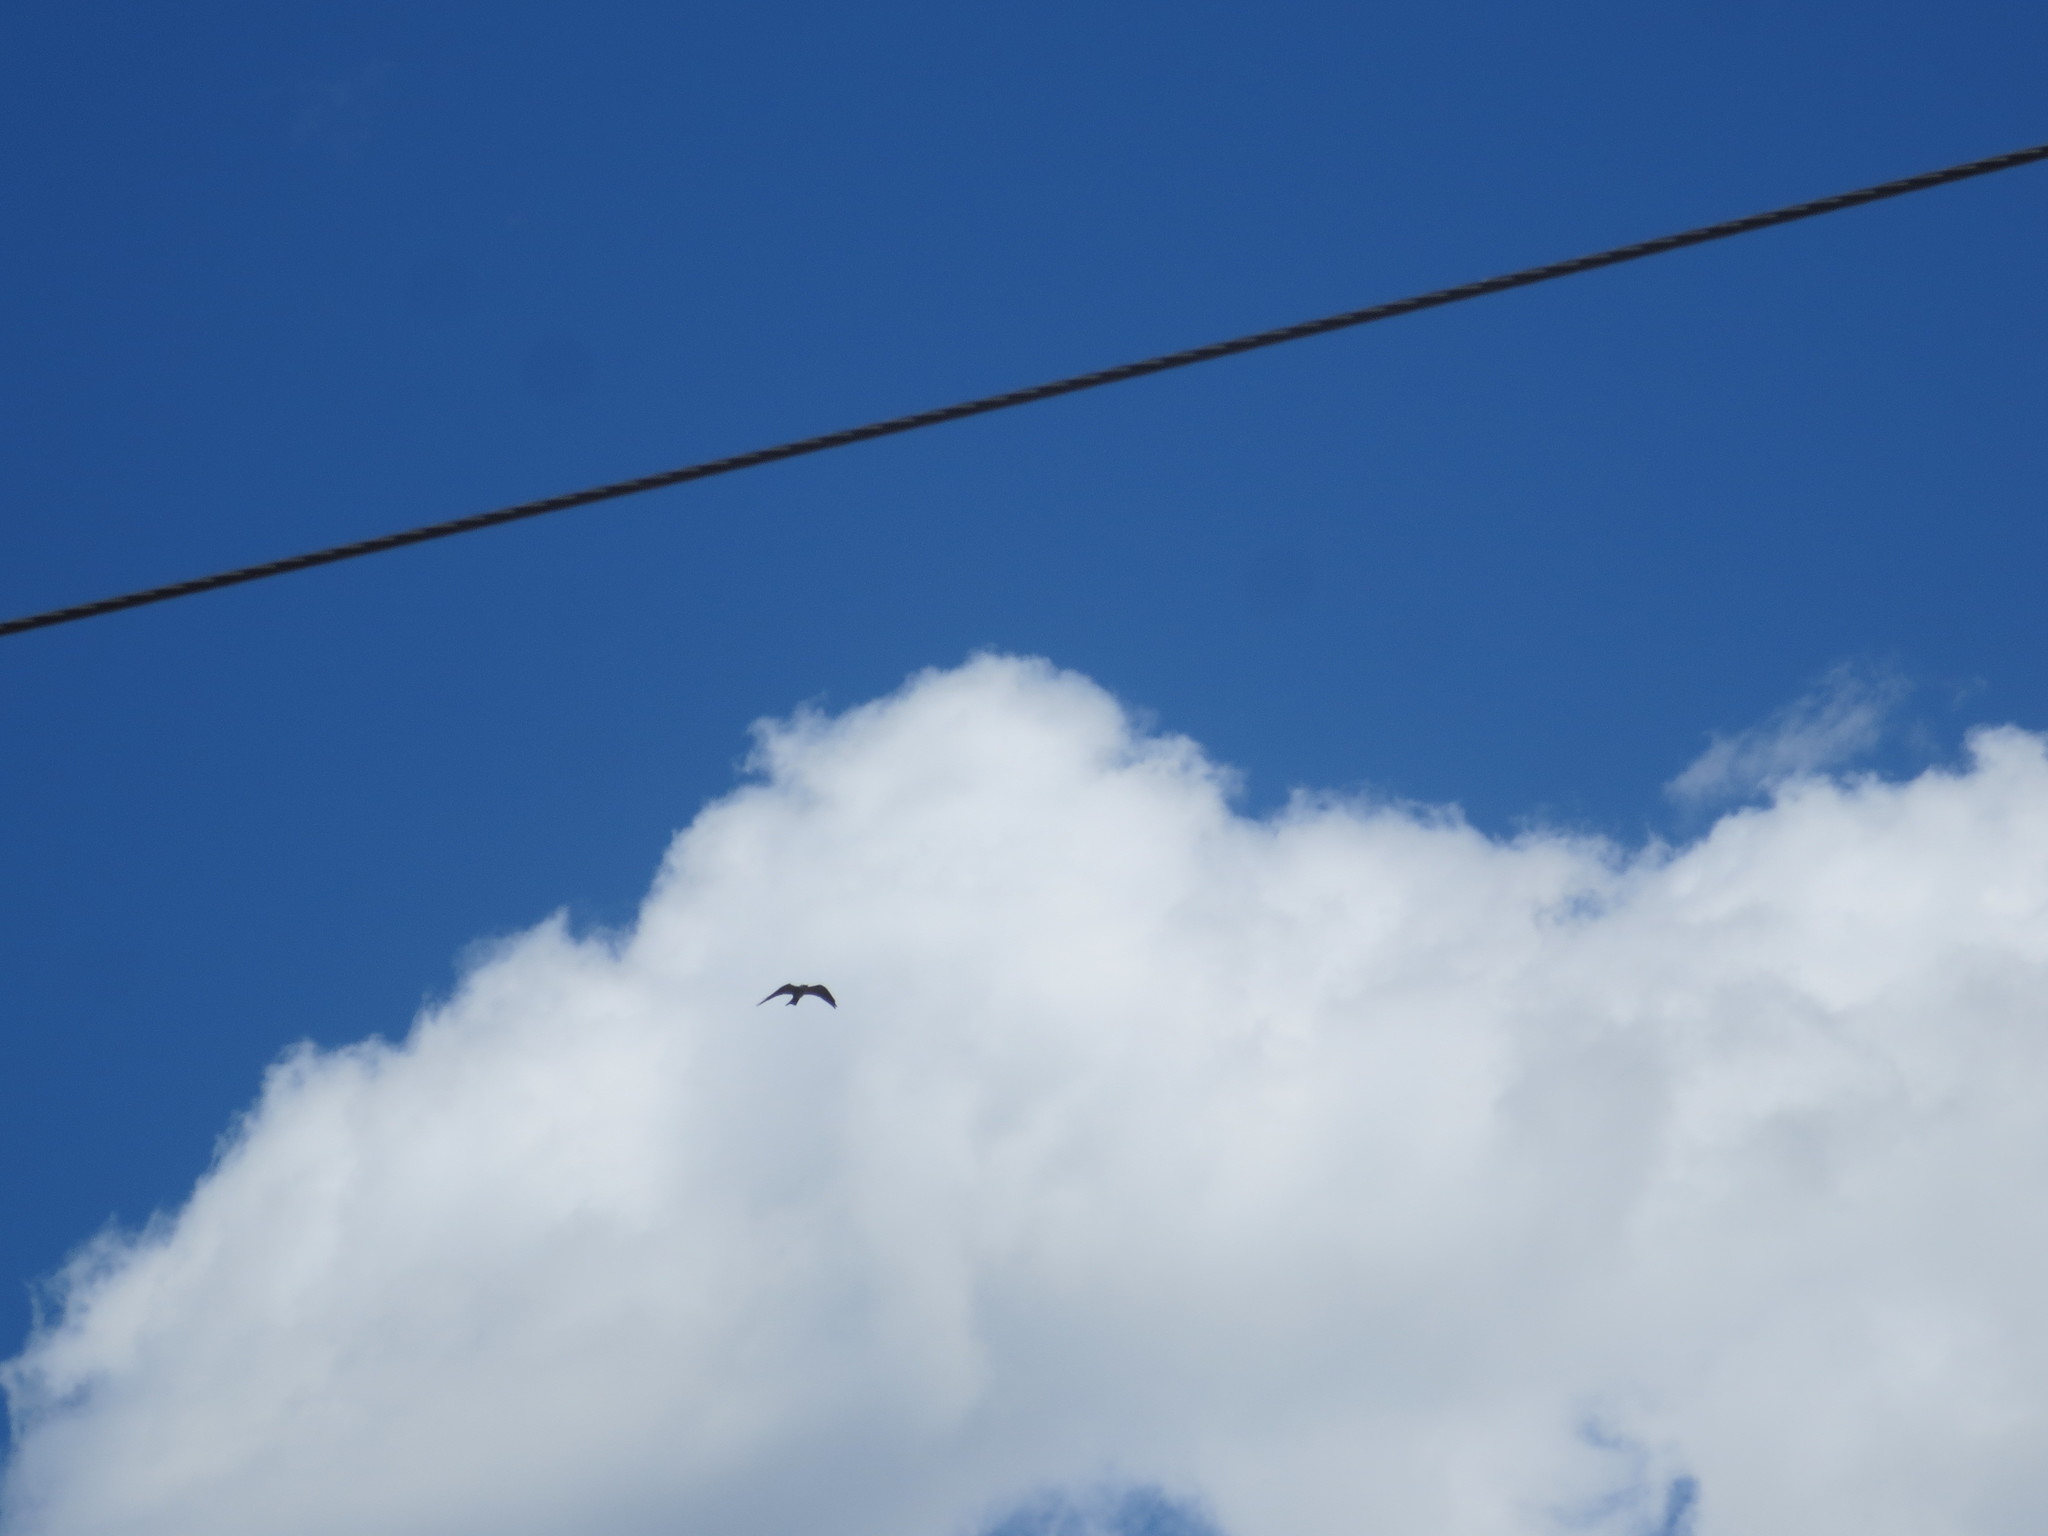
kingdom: Animalia
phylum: Chordata
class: Aves
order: Accipitriformes
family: Accipitridae
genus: Ictinia
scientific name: Ictinia mississippiensis
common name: Mississippi kite
